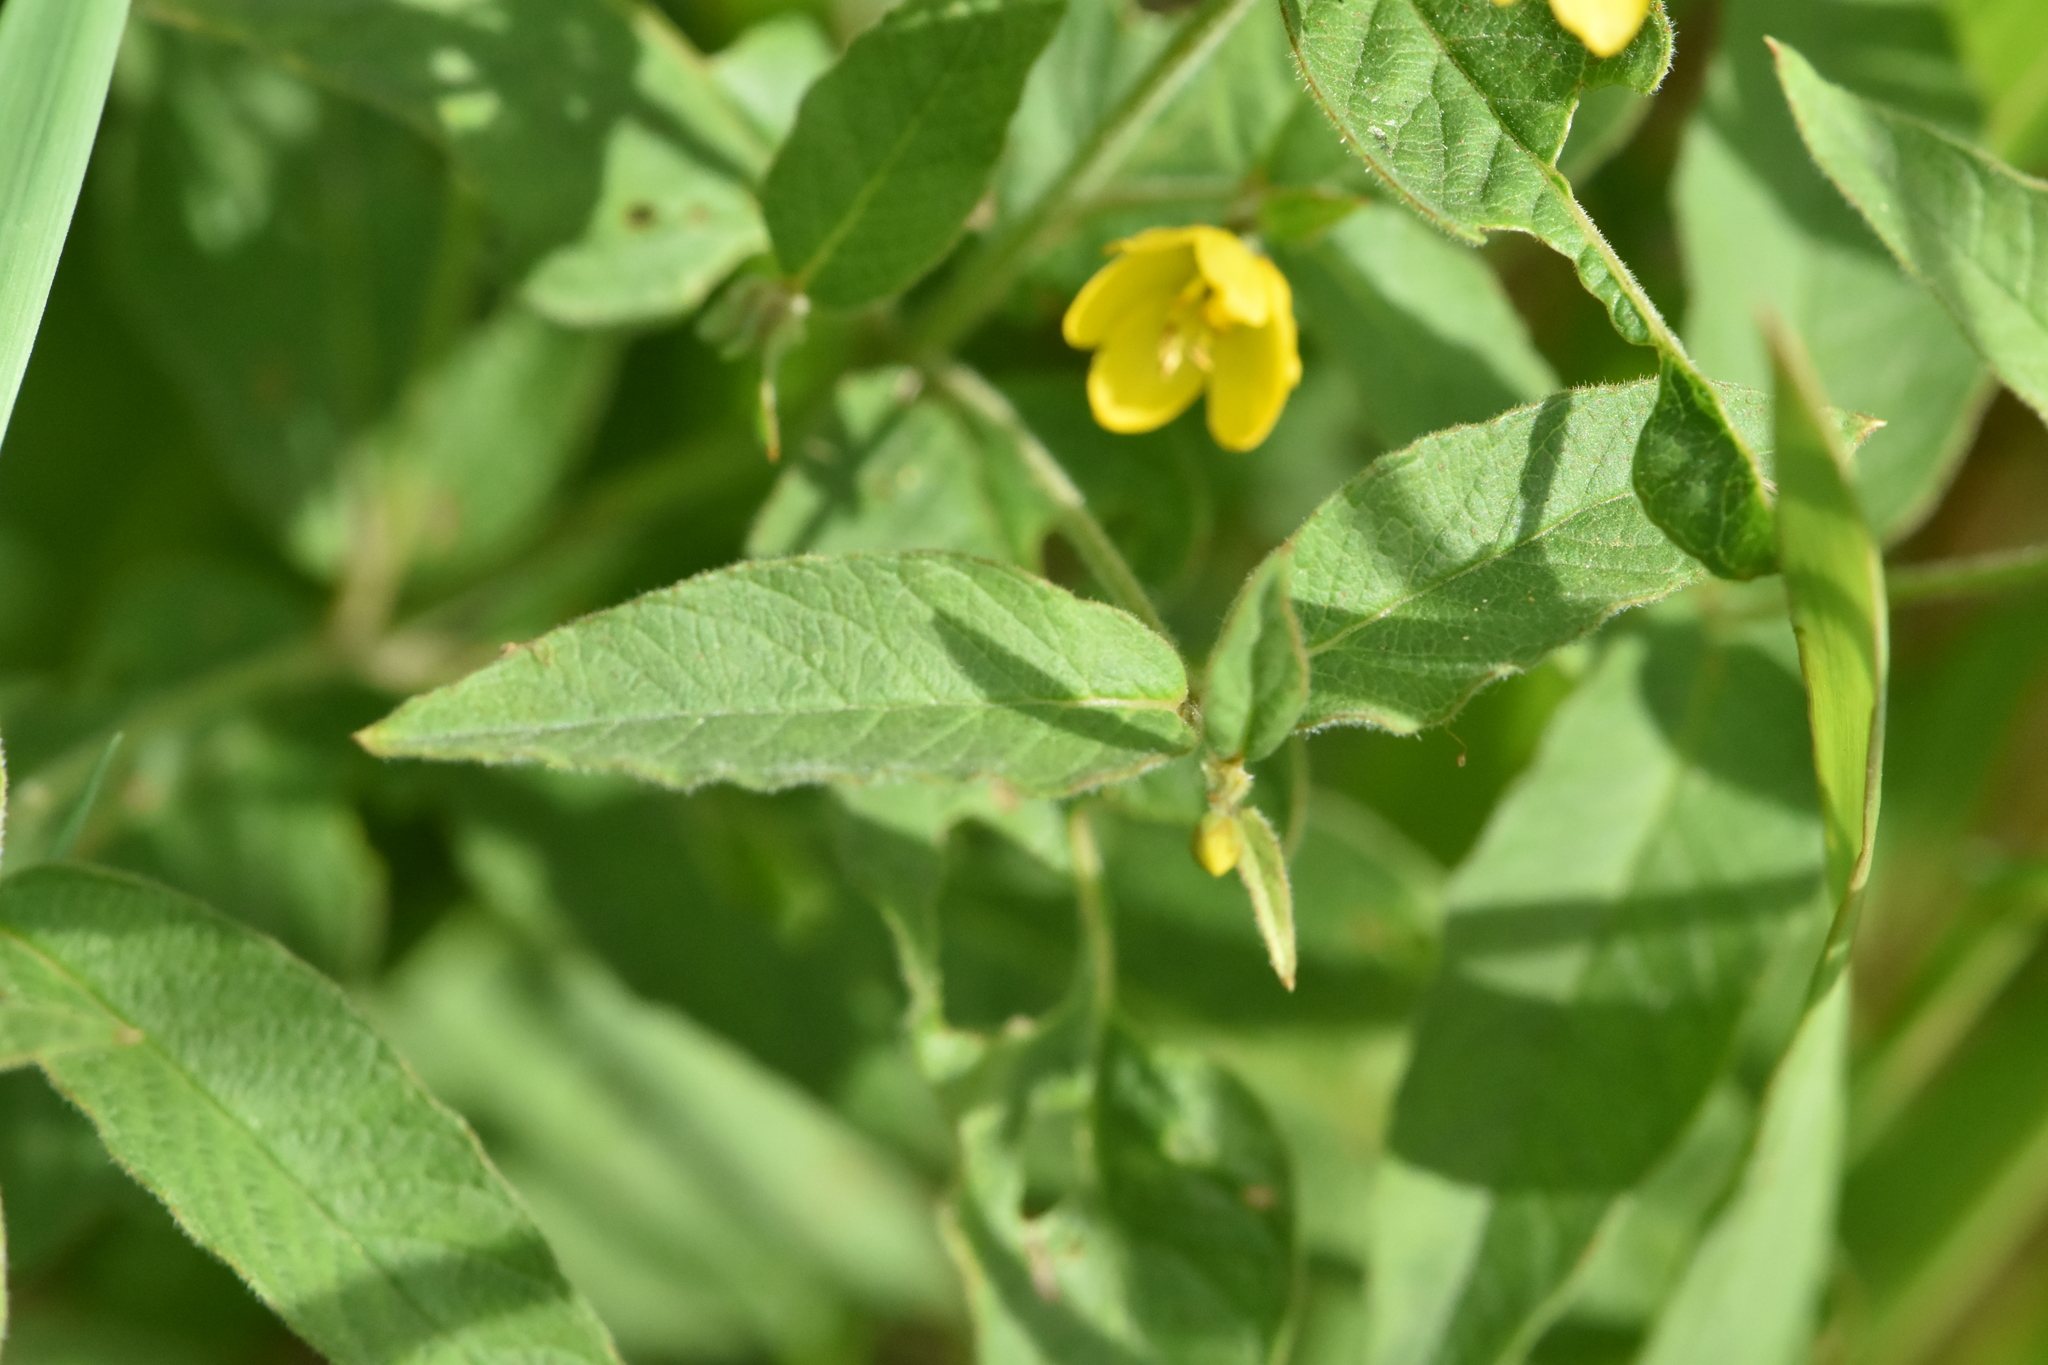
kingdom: Plantae
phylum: Tracheophyta
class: Magnoliopsida
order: Ericales
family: Primulaceae
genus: Lysimachia
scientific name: Lysimachia vulgaris
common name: Yellow loosestrife
